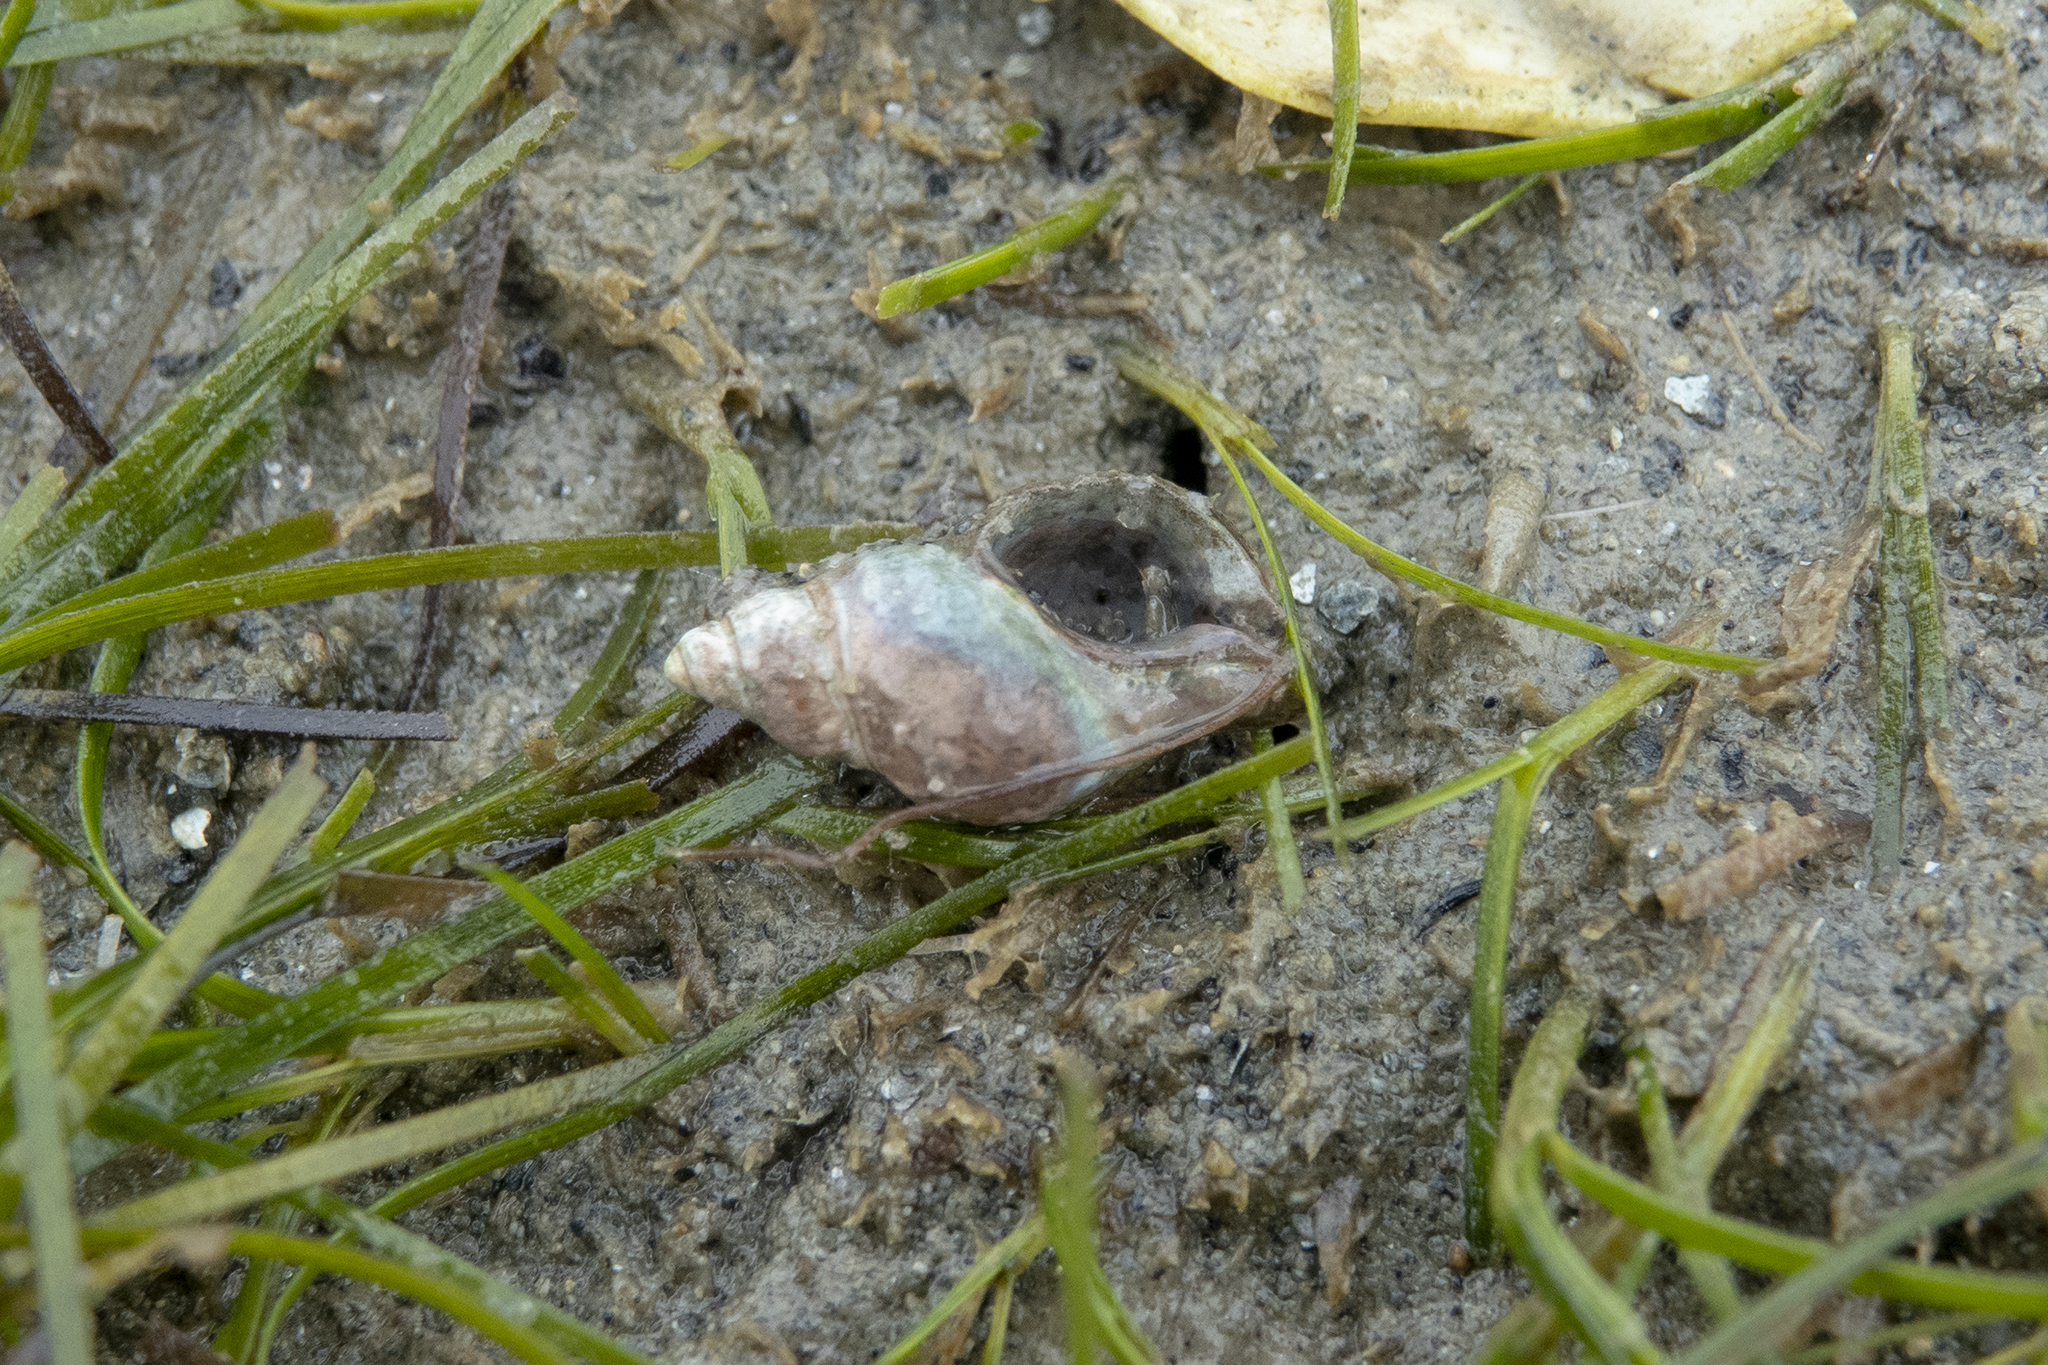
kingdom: Animalia
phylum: Mollusca
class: Gastropoda
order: Neogastropoda
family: Muricidae
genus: Xymene
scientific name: Xymene plebeius
